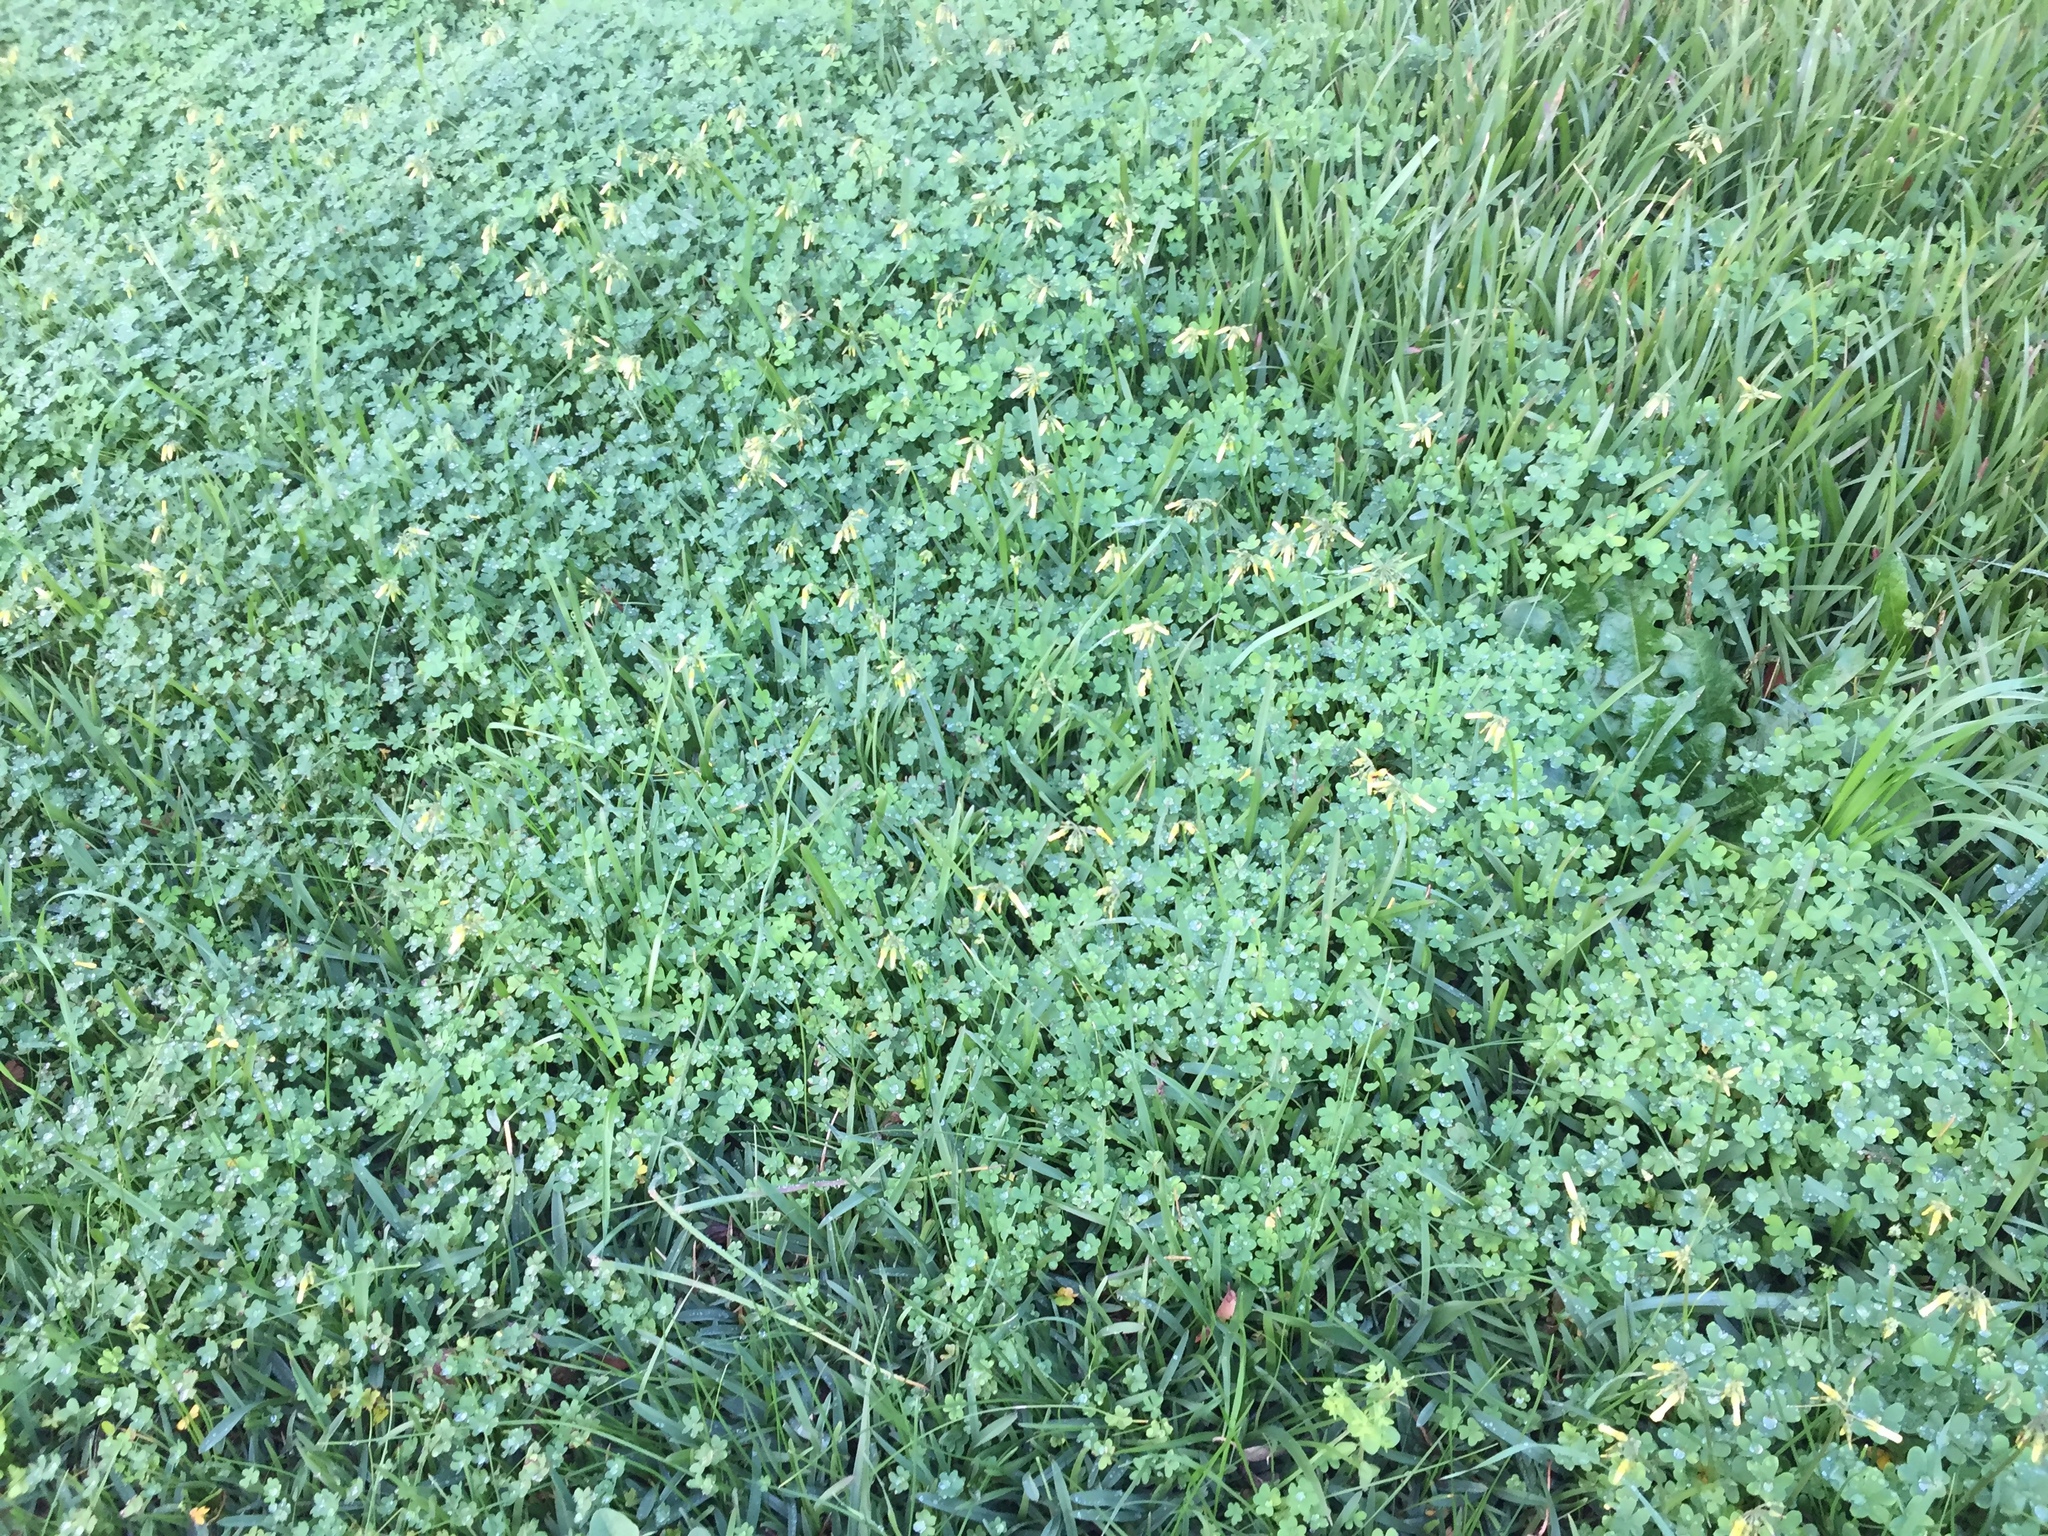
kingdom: Plantae
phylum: Tracheophyta
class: Magnoliopsida
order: Oxalidales
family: Oxalidaceae
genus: Oxalis
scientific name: Oxalis pes-caprae
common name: Bermuda-buttercup
